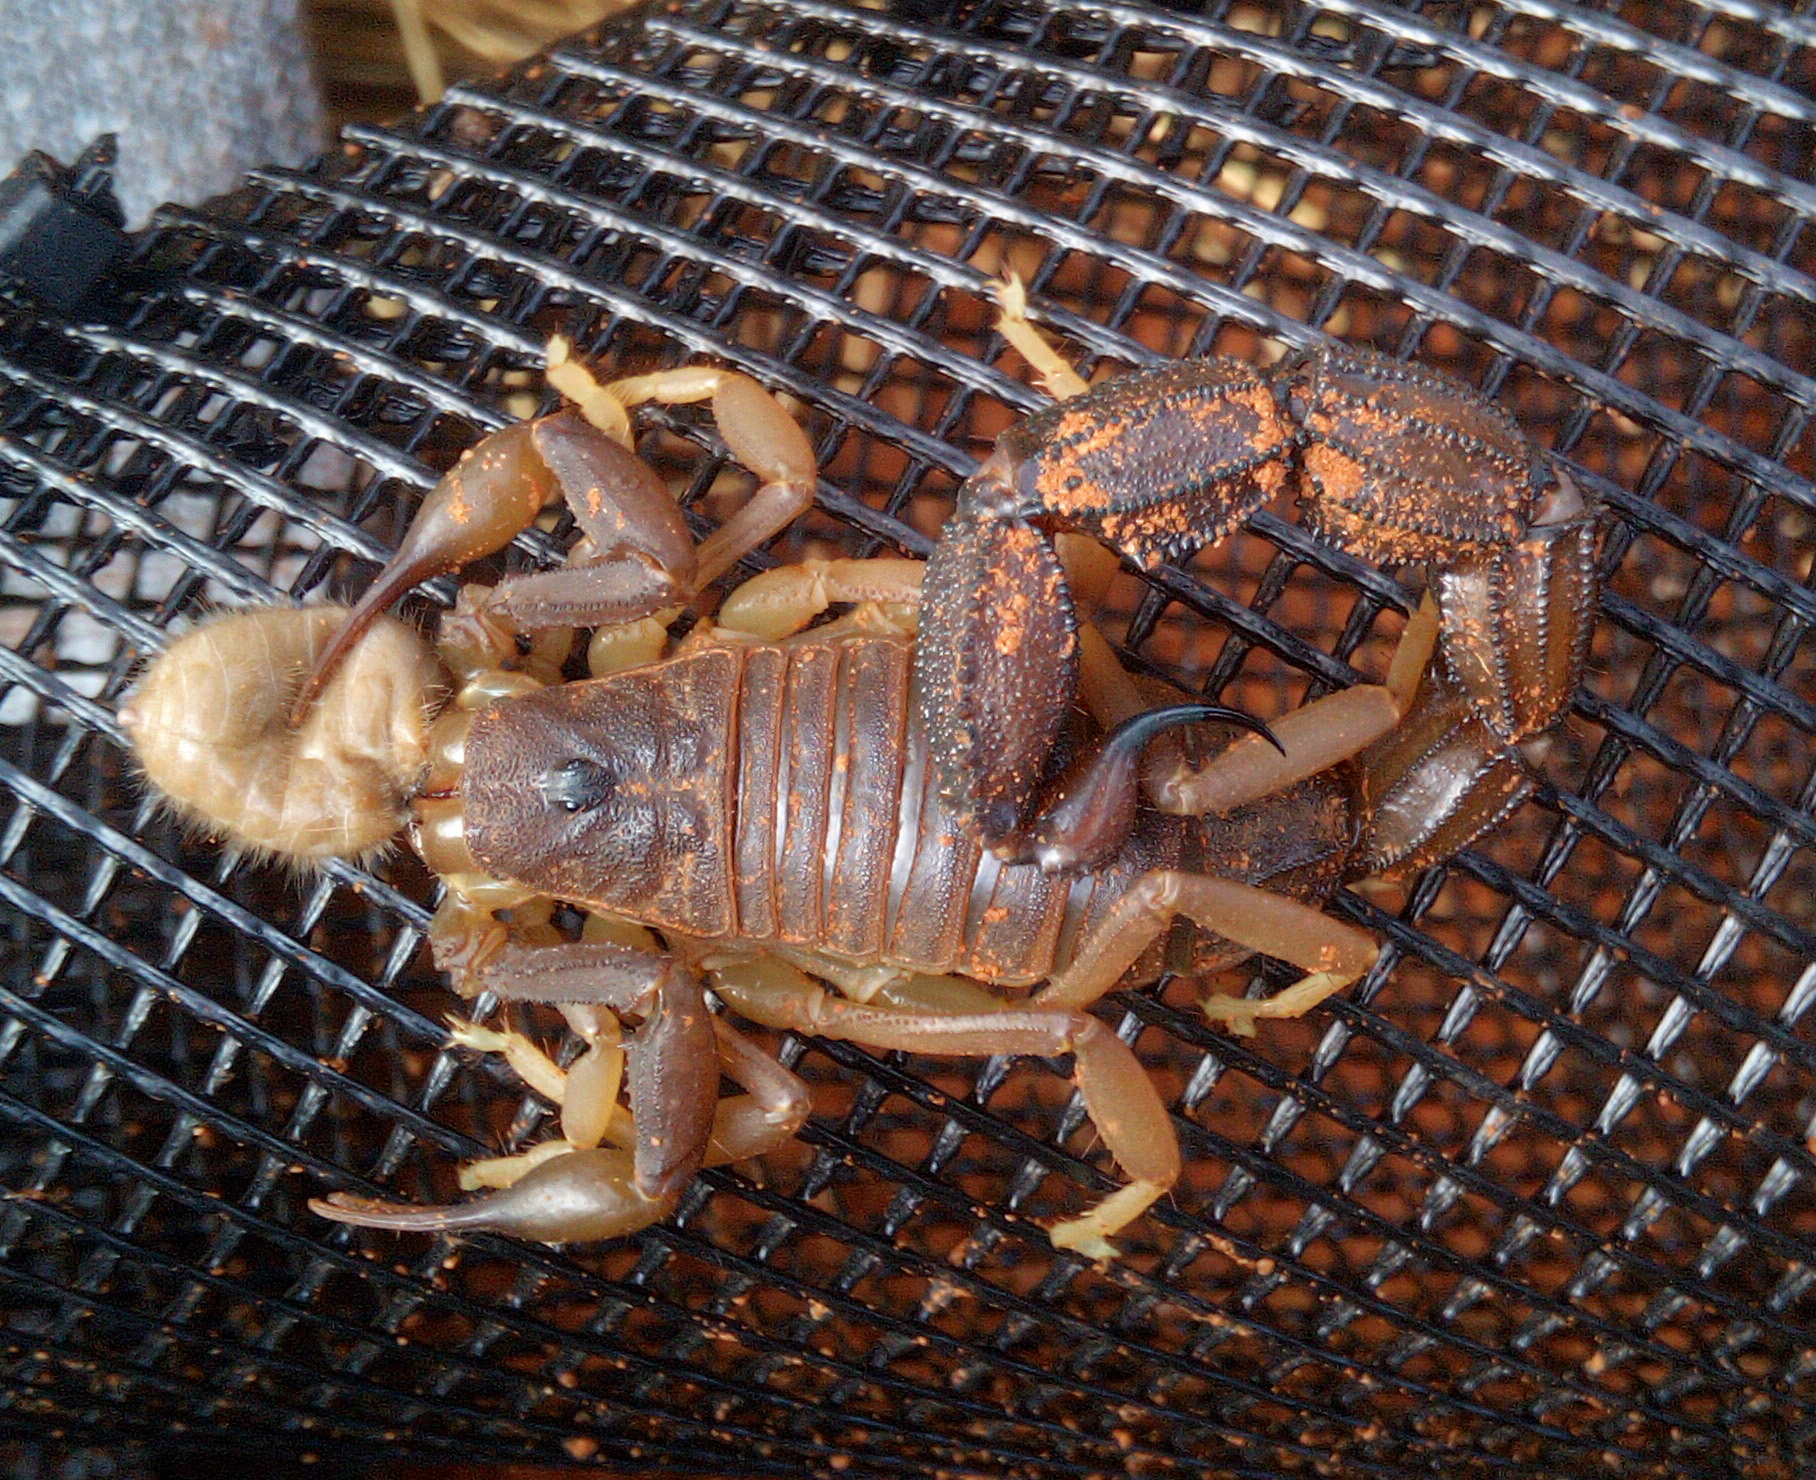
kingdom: Animalia
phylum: Arthropoda
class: Arachnida
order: Scorpiones
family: Buthidae
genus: Parabuthus
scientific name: Parabuthus granulatus
